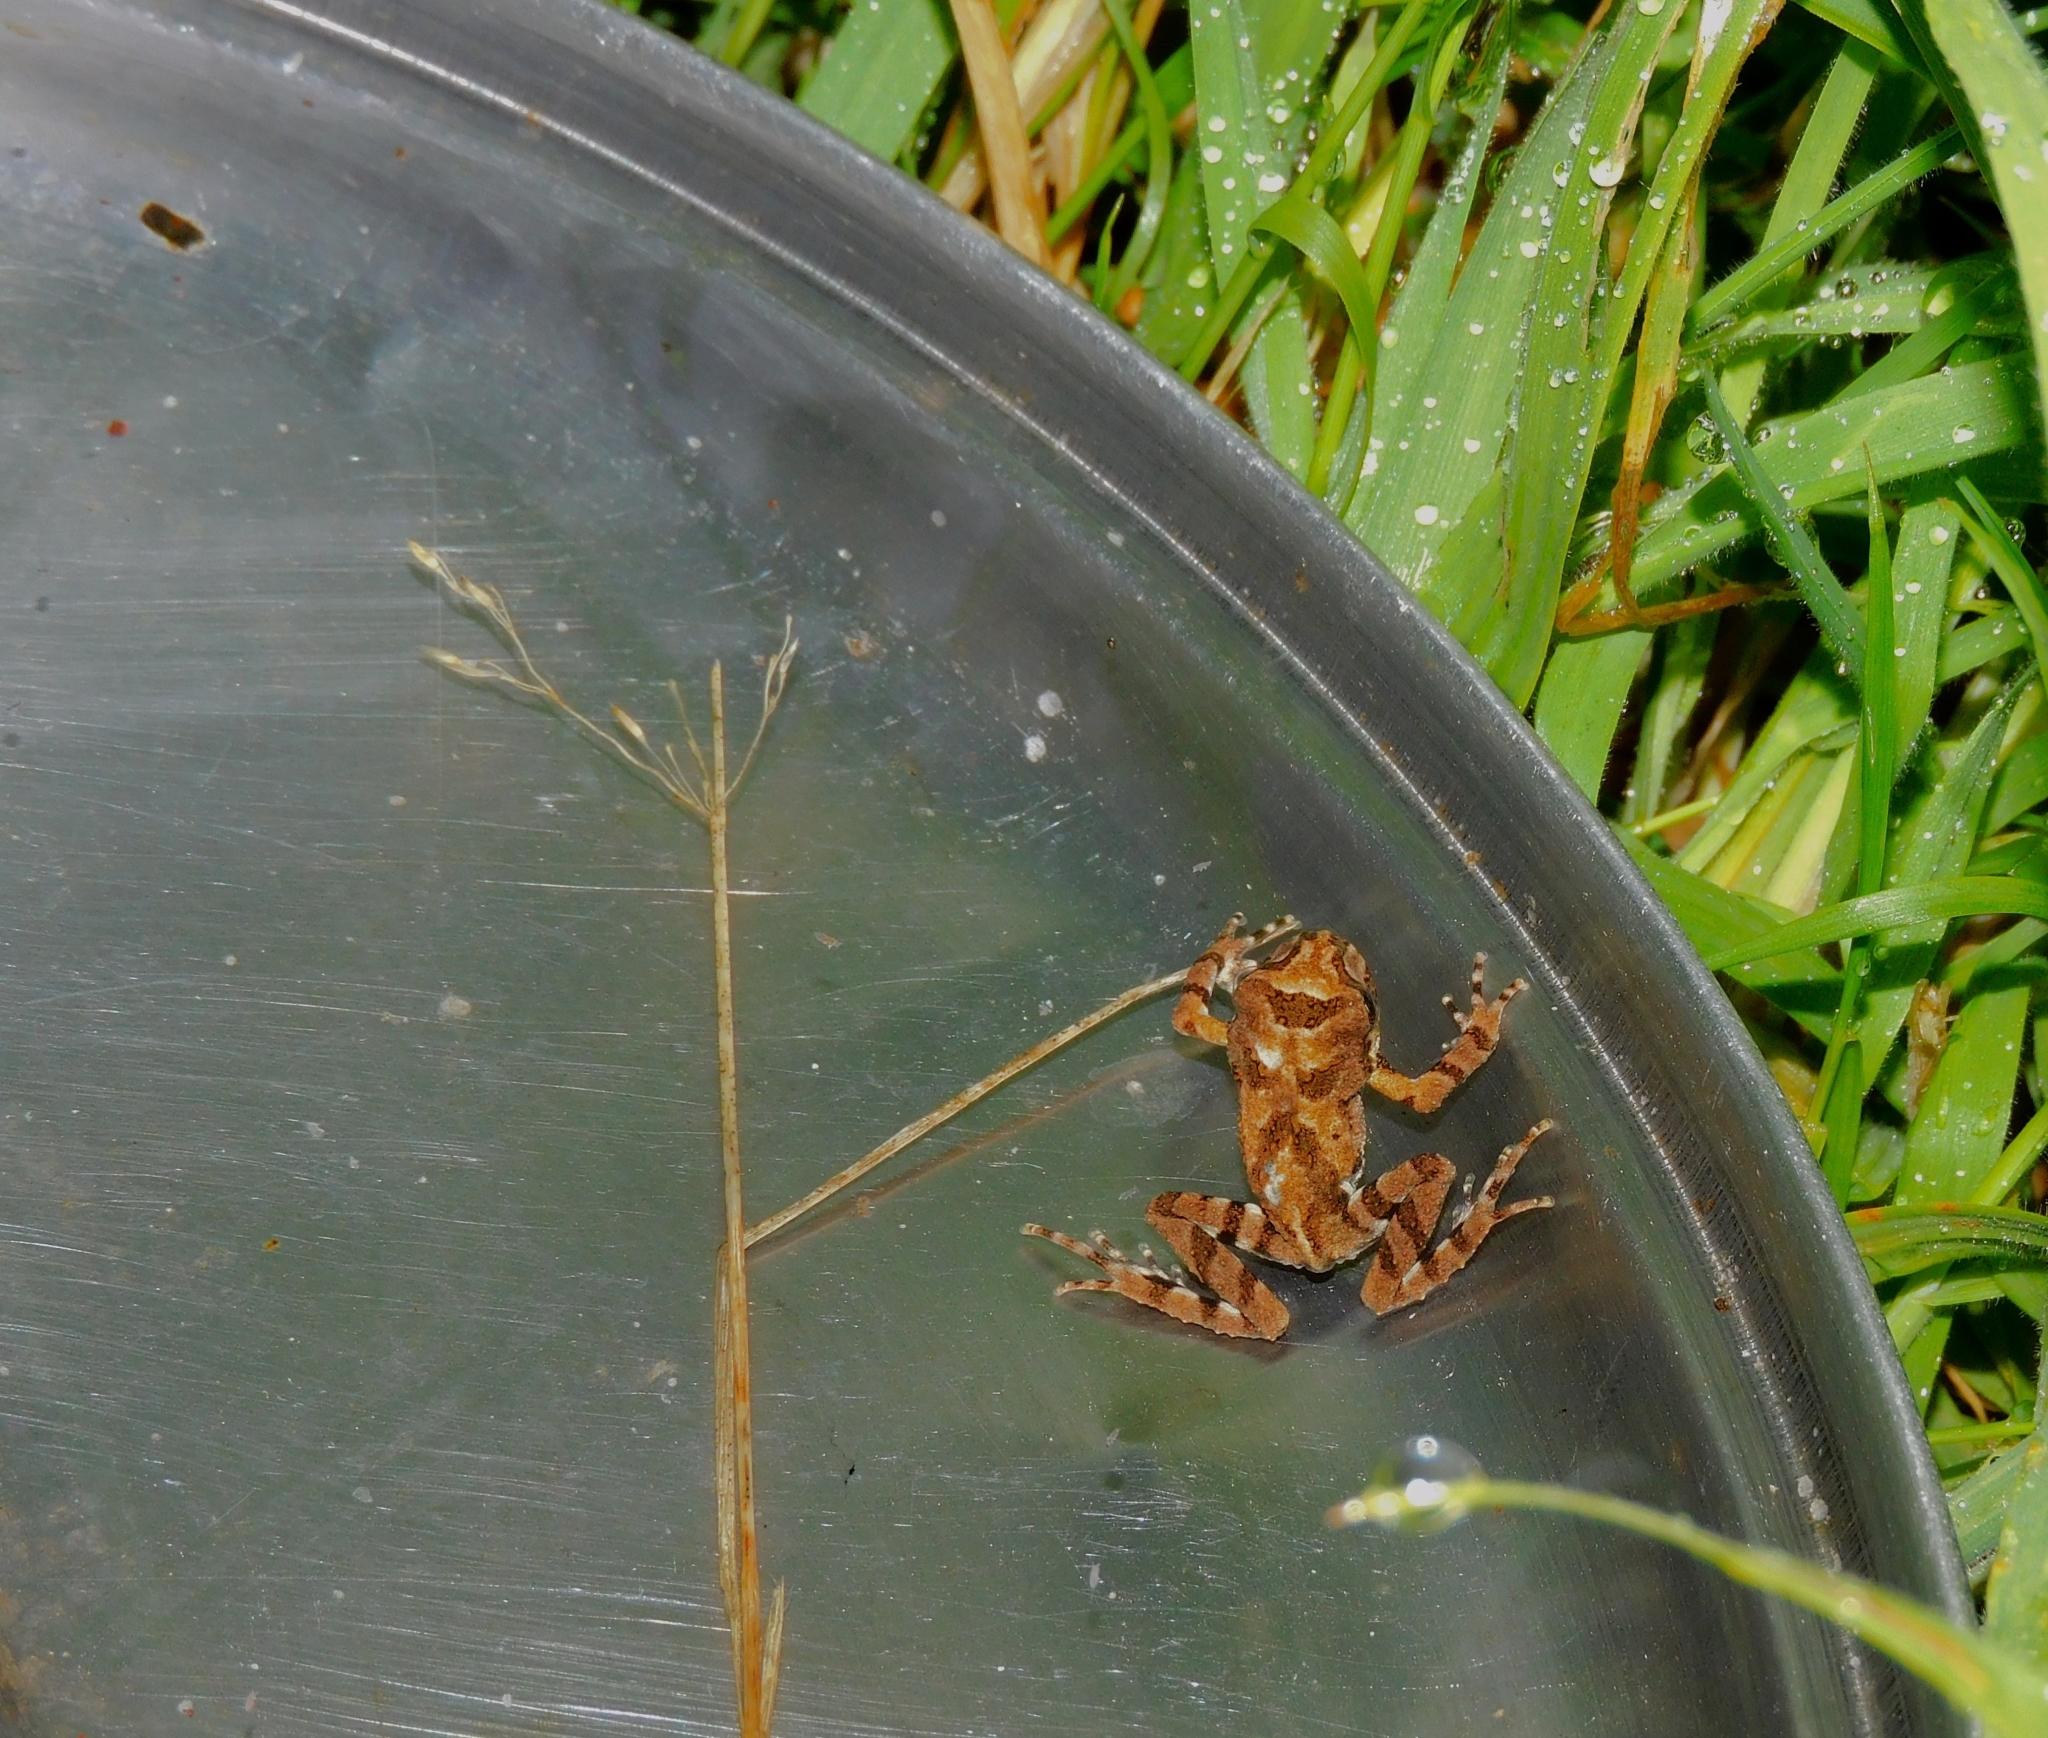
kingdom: Animalia
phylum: Chordata
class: Amphibia
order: Anura
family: Batrachylidae
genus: Batrachyla
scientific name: Batrachyla leptopus
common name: Gray wood frog
